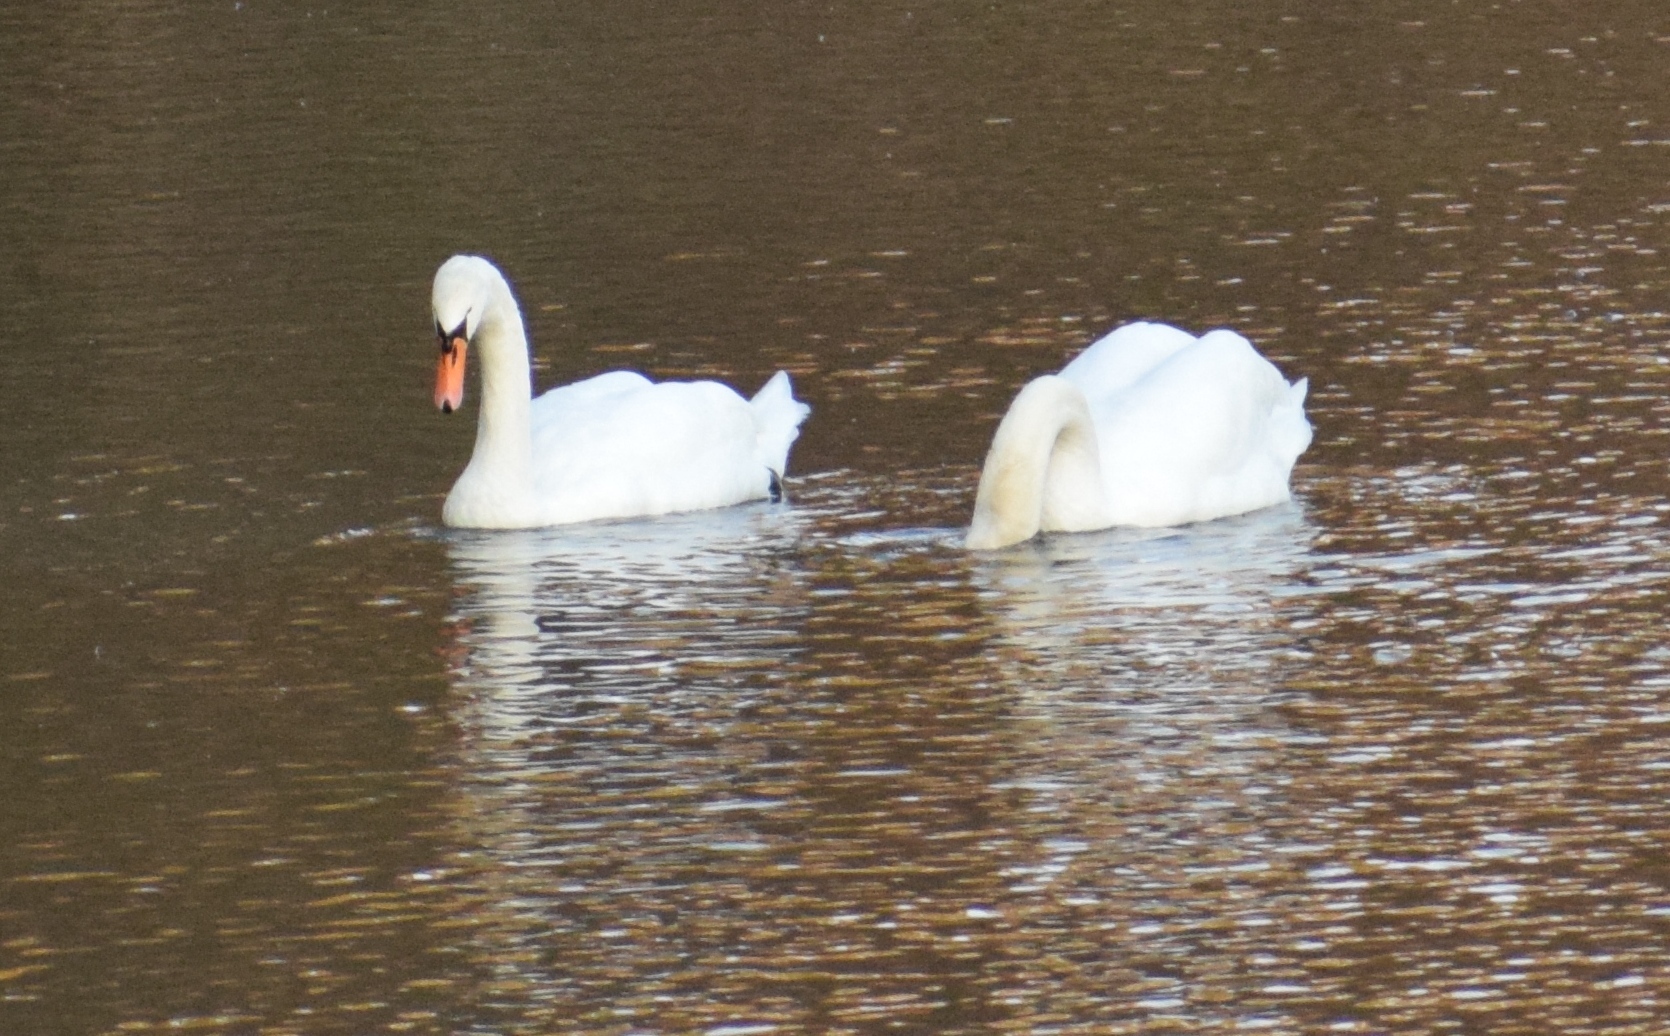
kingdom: Animalia
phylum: Chordata
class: Aves
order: Anseriformes
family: Anatidae
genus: Cygnus
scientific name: Cygnus olor
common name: Mute swan
